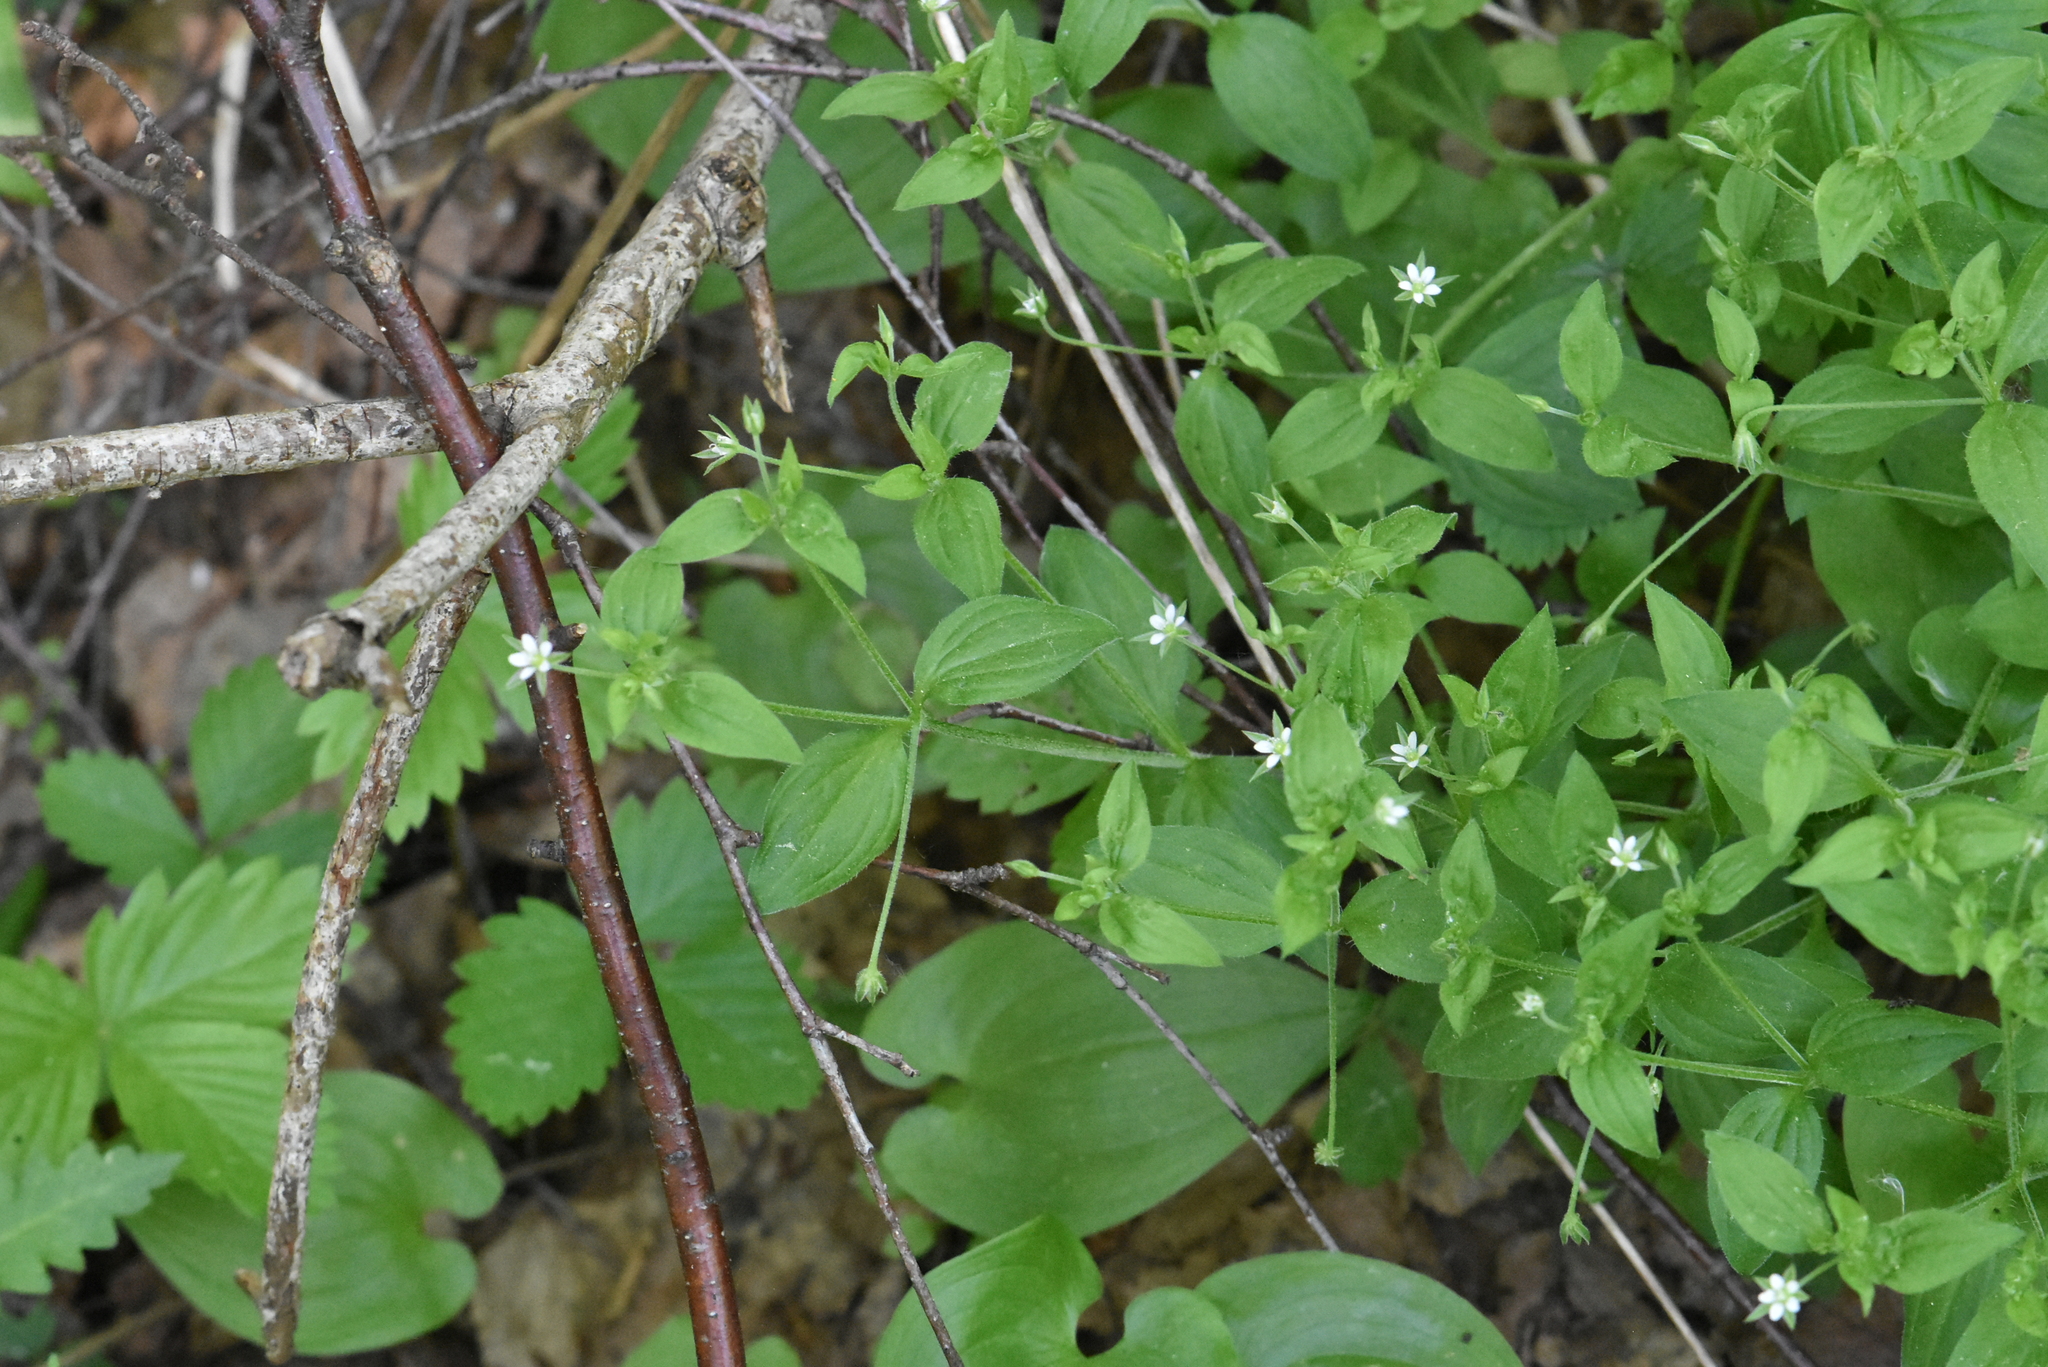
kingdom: Plantae
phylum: Tracheophyta
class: Magnoliopsida
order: Caryophyllales
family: Caryophyllaceae
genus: Moehringia
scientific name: Moehringia trinervia
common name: Three-nerved sandwort
